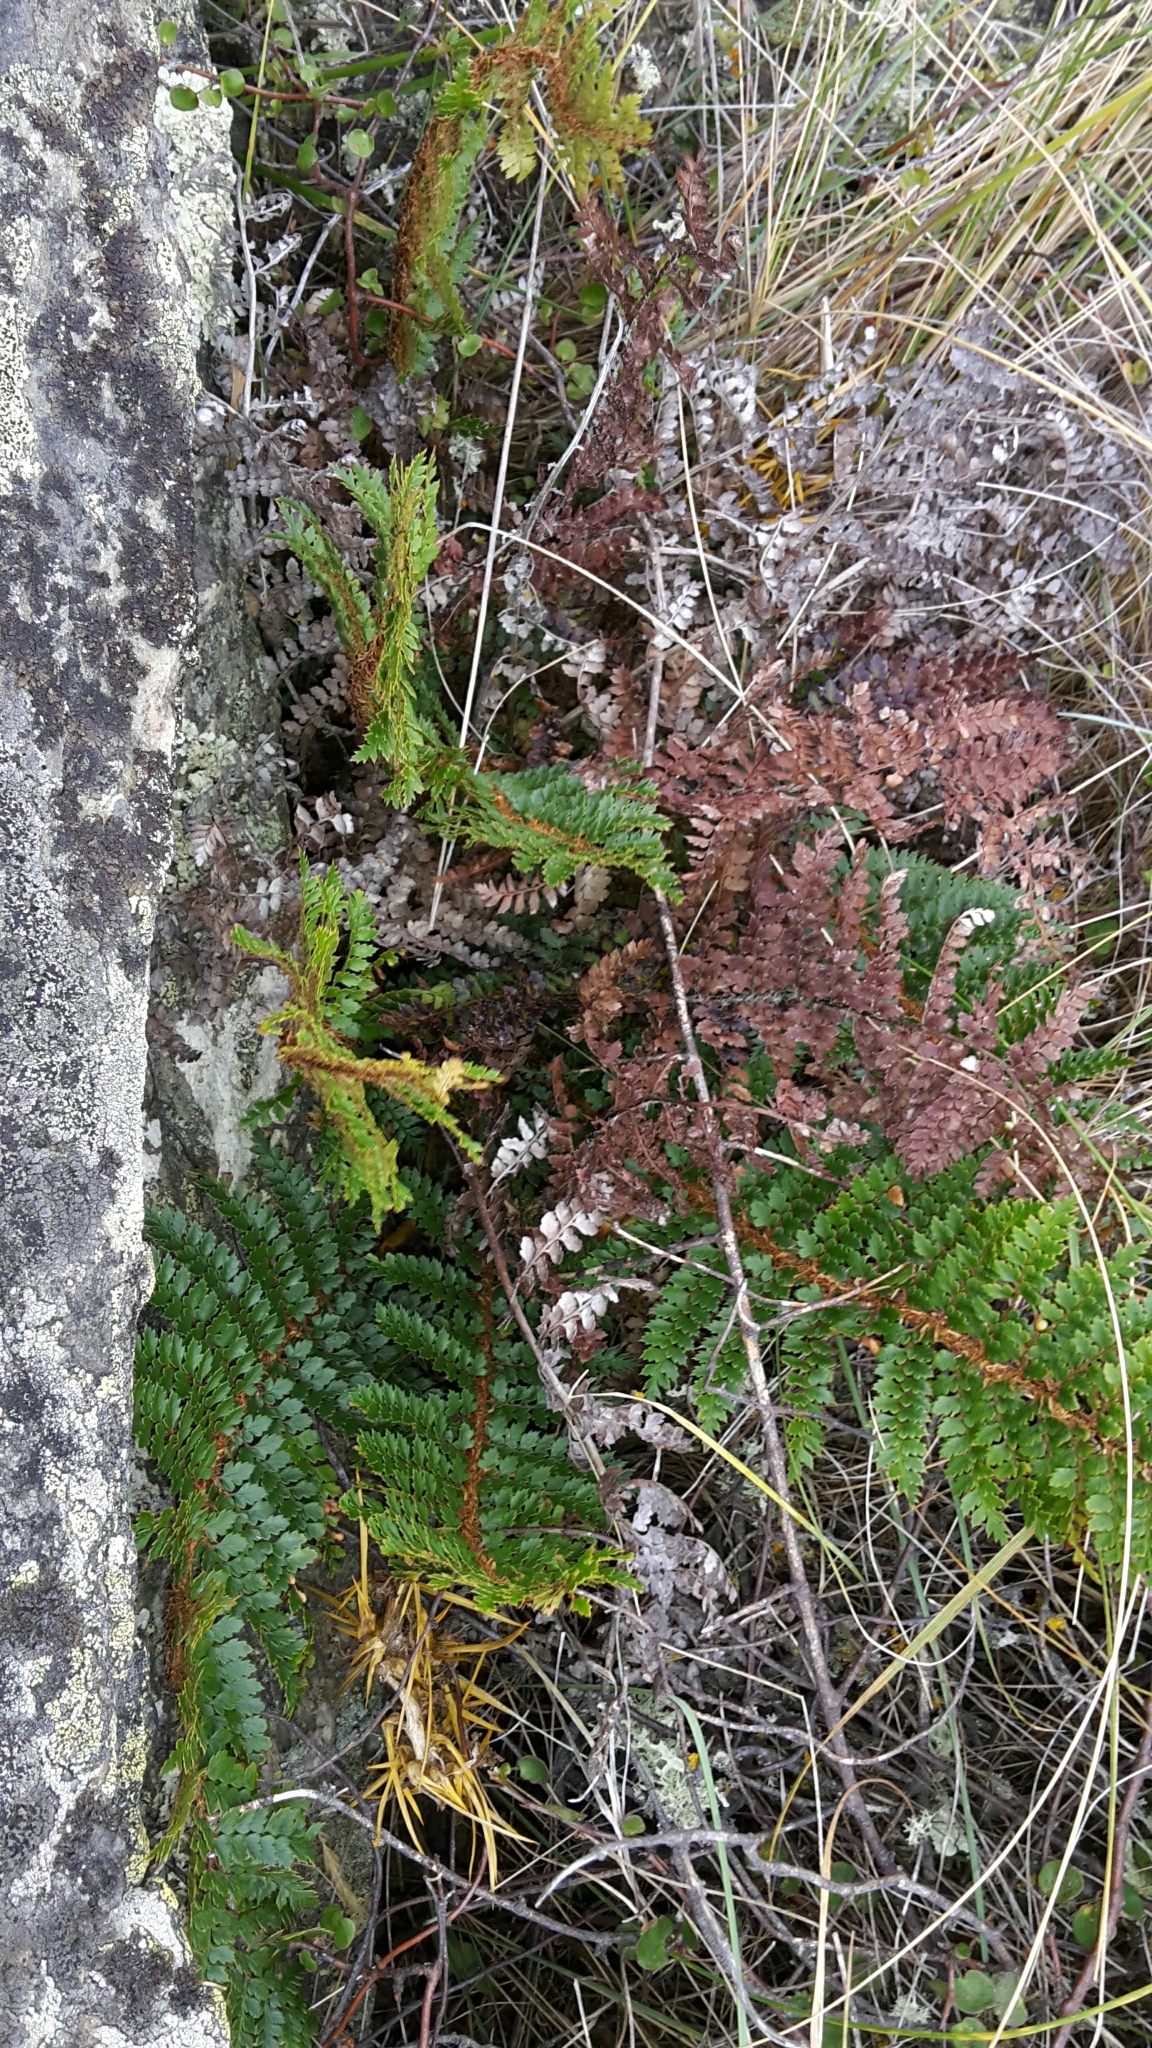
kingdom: Plantae
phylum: Tracheophyta
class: Polypodiopsida
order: Polypodiales
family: Dryopteridaceae
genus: Polystichum
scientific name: Polystichum vestitum
